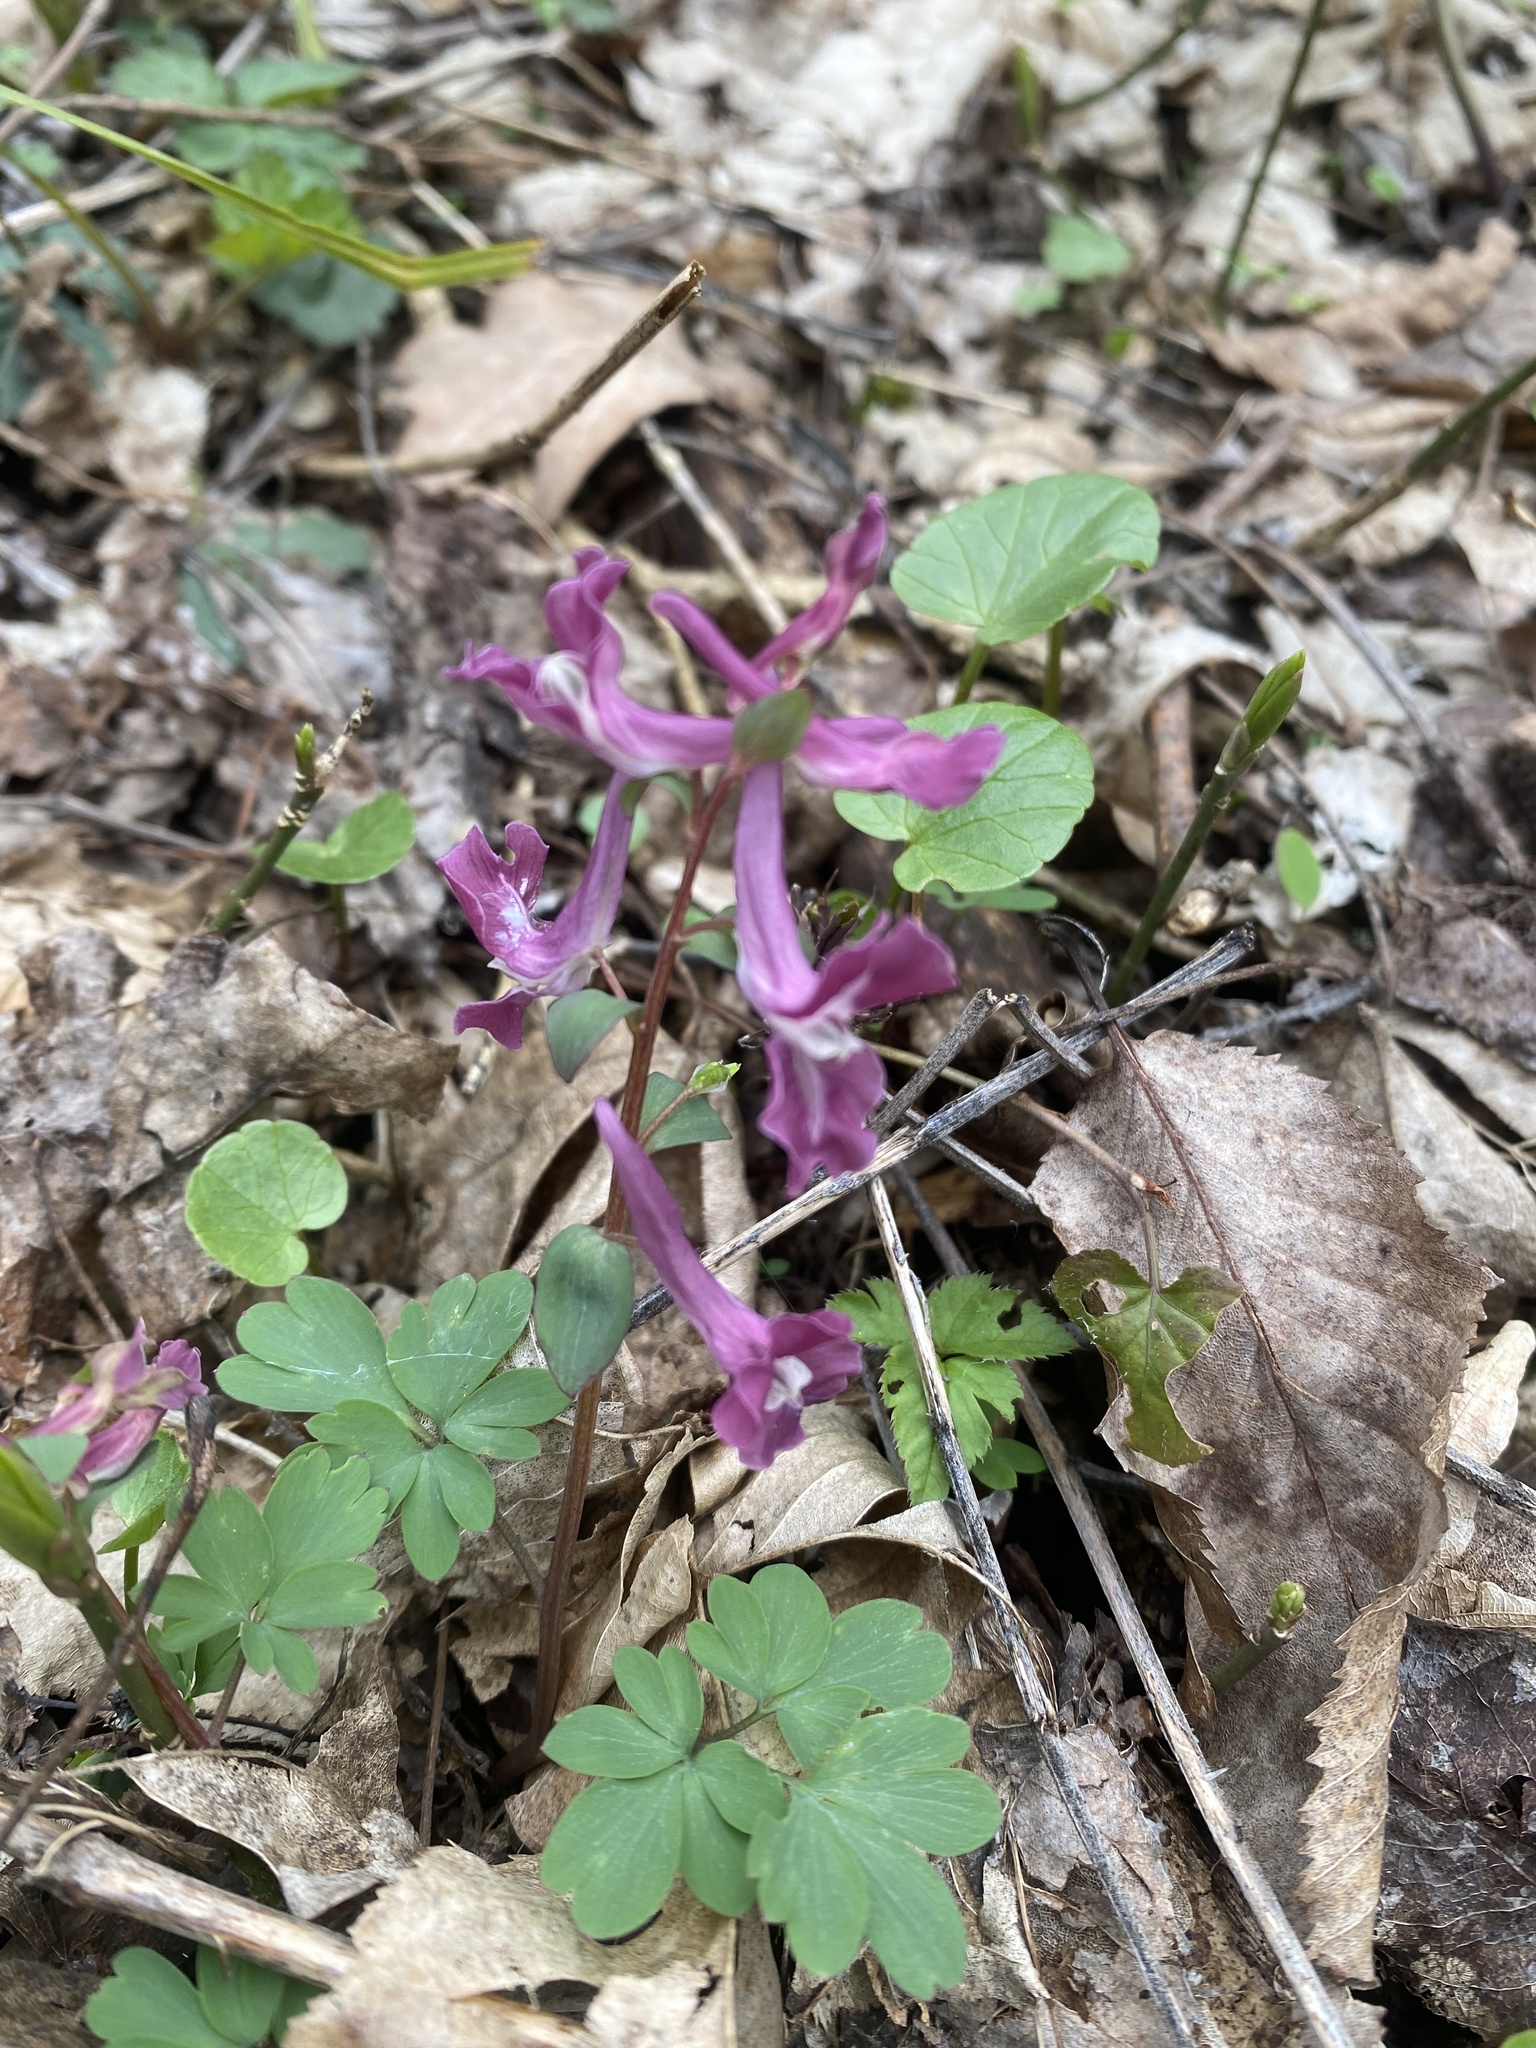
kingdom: Plantae
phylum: Tracheophyta
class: Magnoliopsida
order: Ranunculales
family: Papaveraceae
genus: Corydalis
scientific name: Corydalis caucasica
